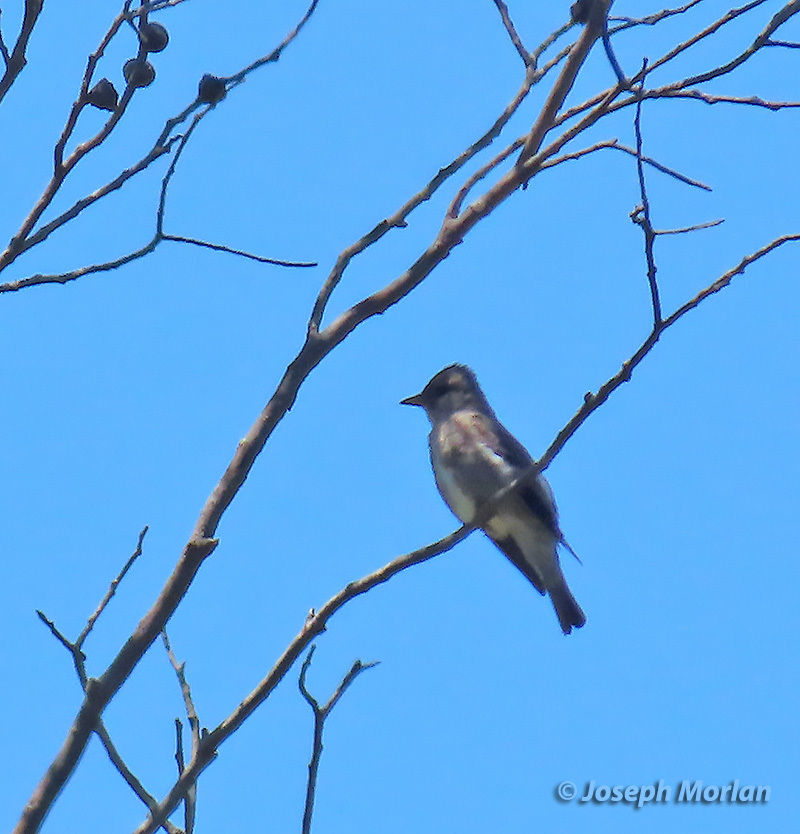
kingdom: Animalia
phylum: Chordata
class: Aves
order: Passeriformes
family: Tyrannidae
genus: Contopus
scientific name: Contopus cooperi
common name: Olive-sided flycatcher
